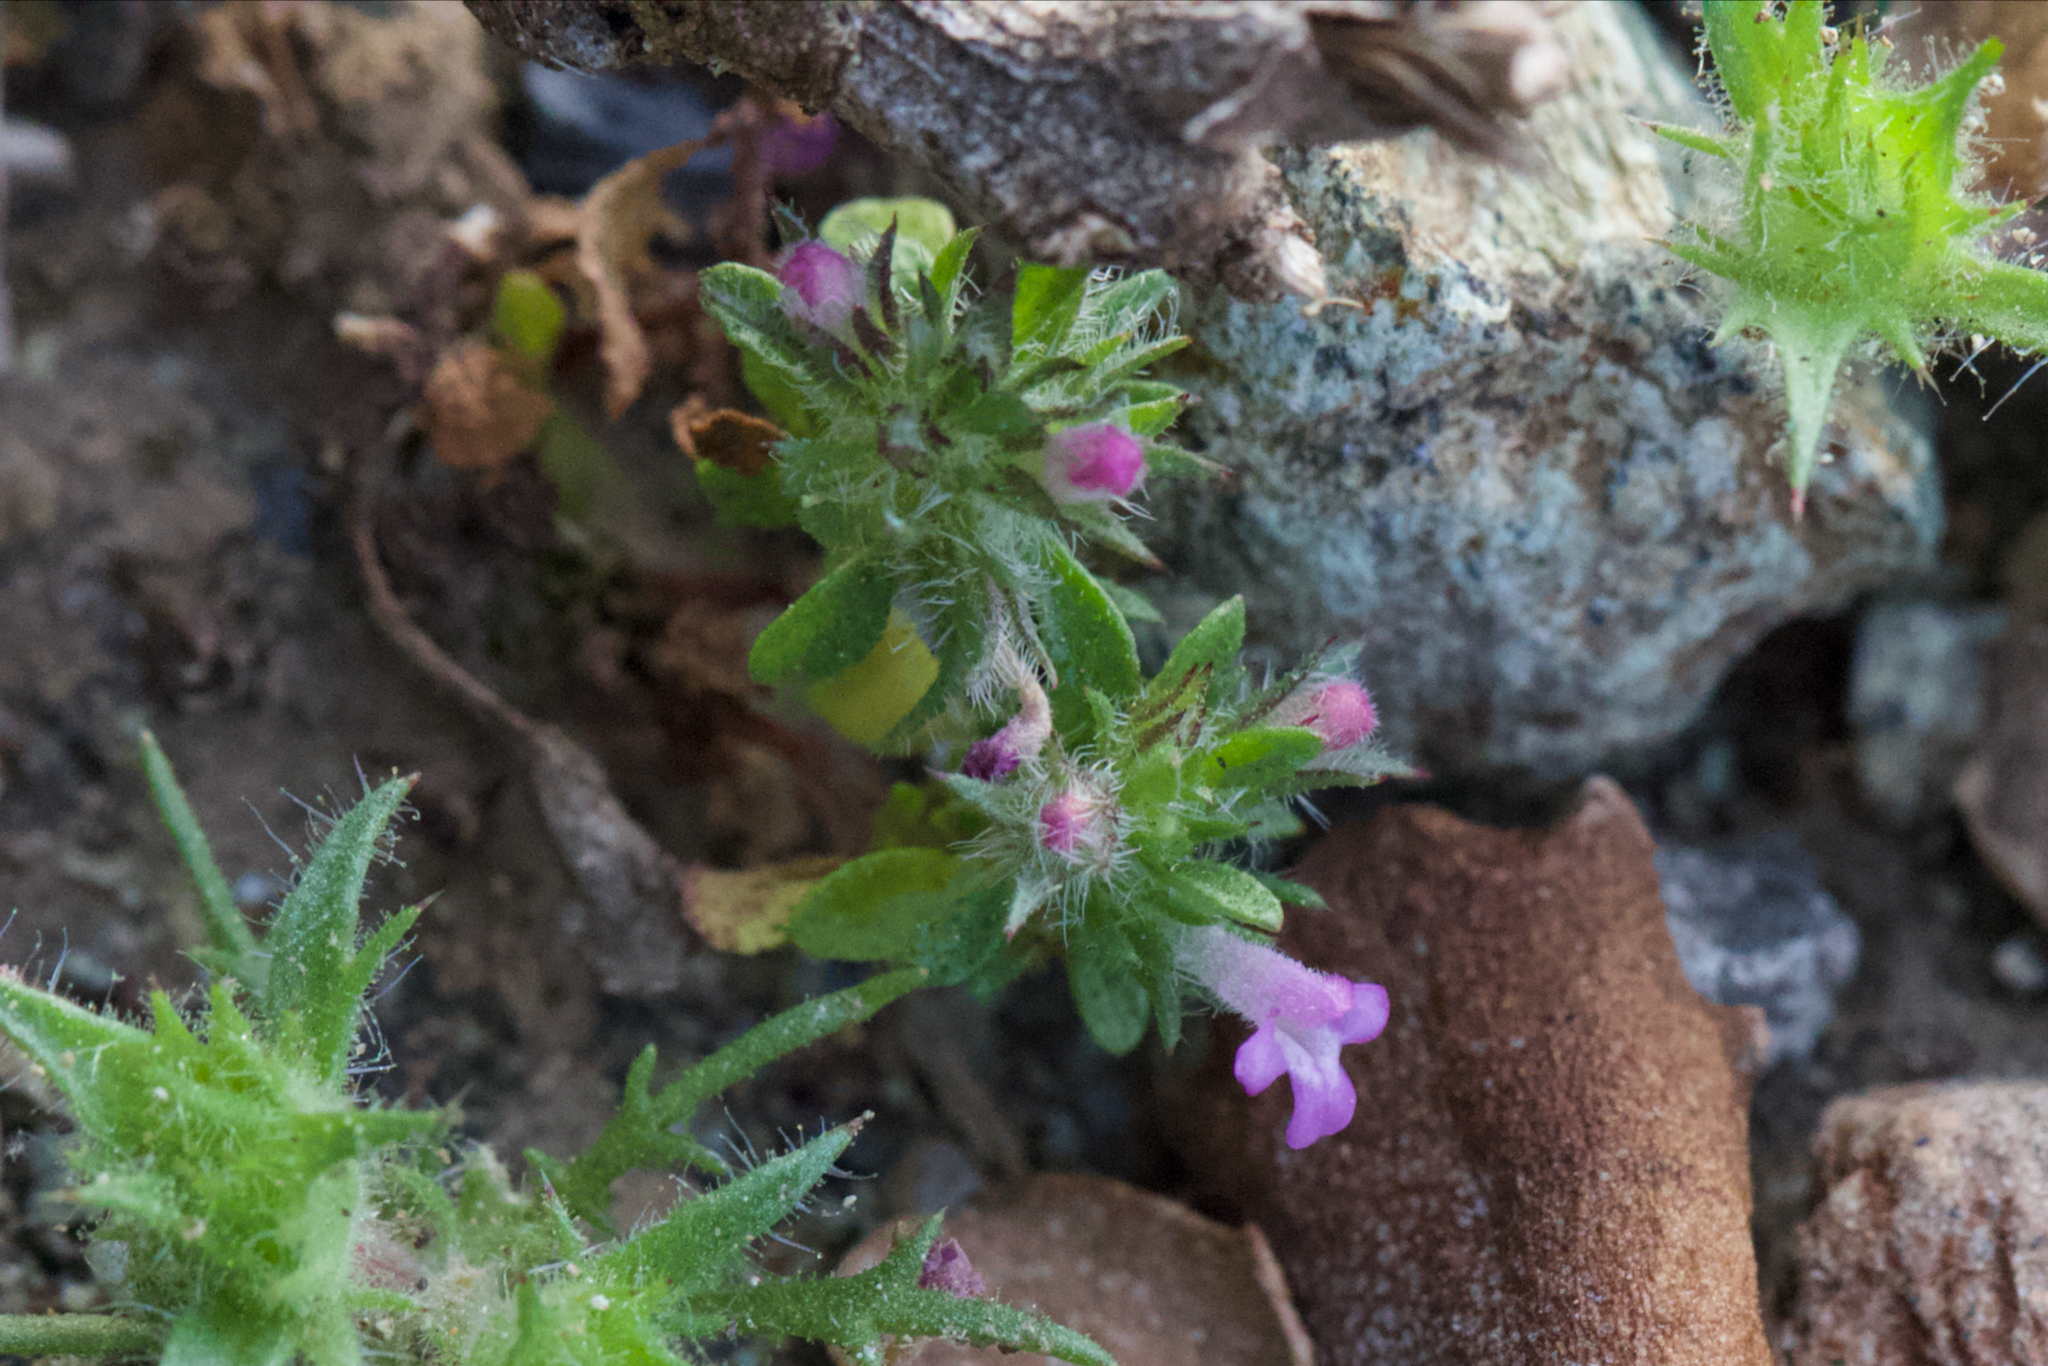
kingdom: Plantae
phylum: Tracheophyta
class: Magnoliopsida
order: Lamiales
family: Lamiaceae
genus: Pogogyne
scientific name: Pogogyne serpylloides
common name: Thymeleaf mesamint
